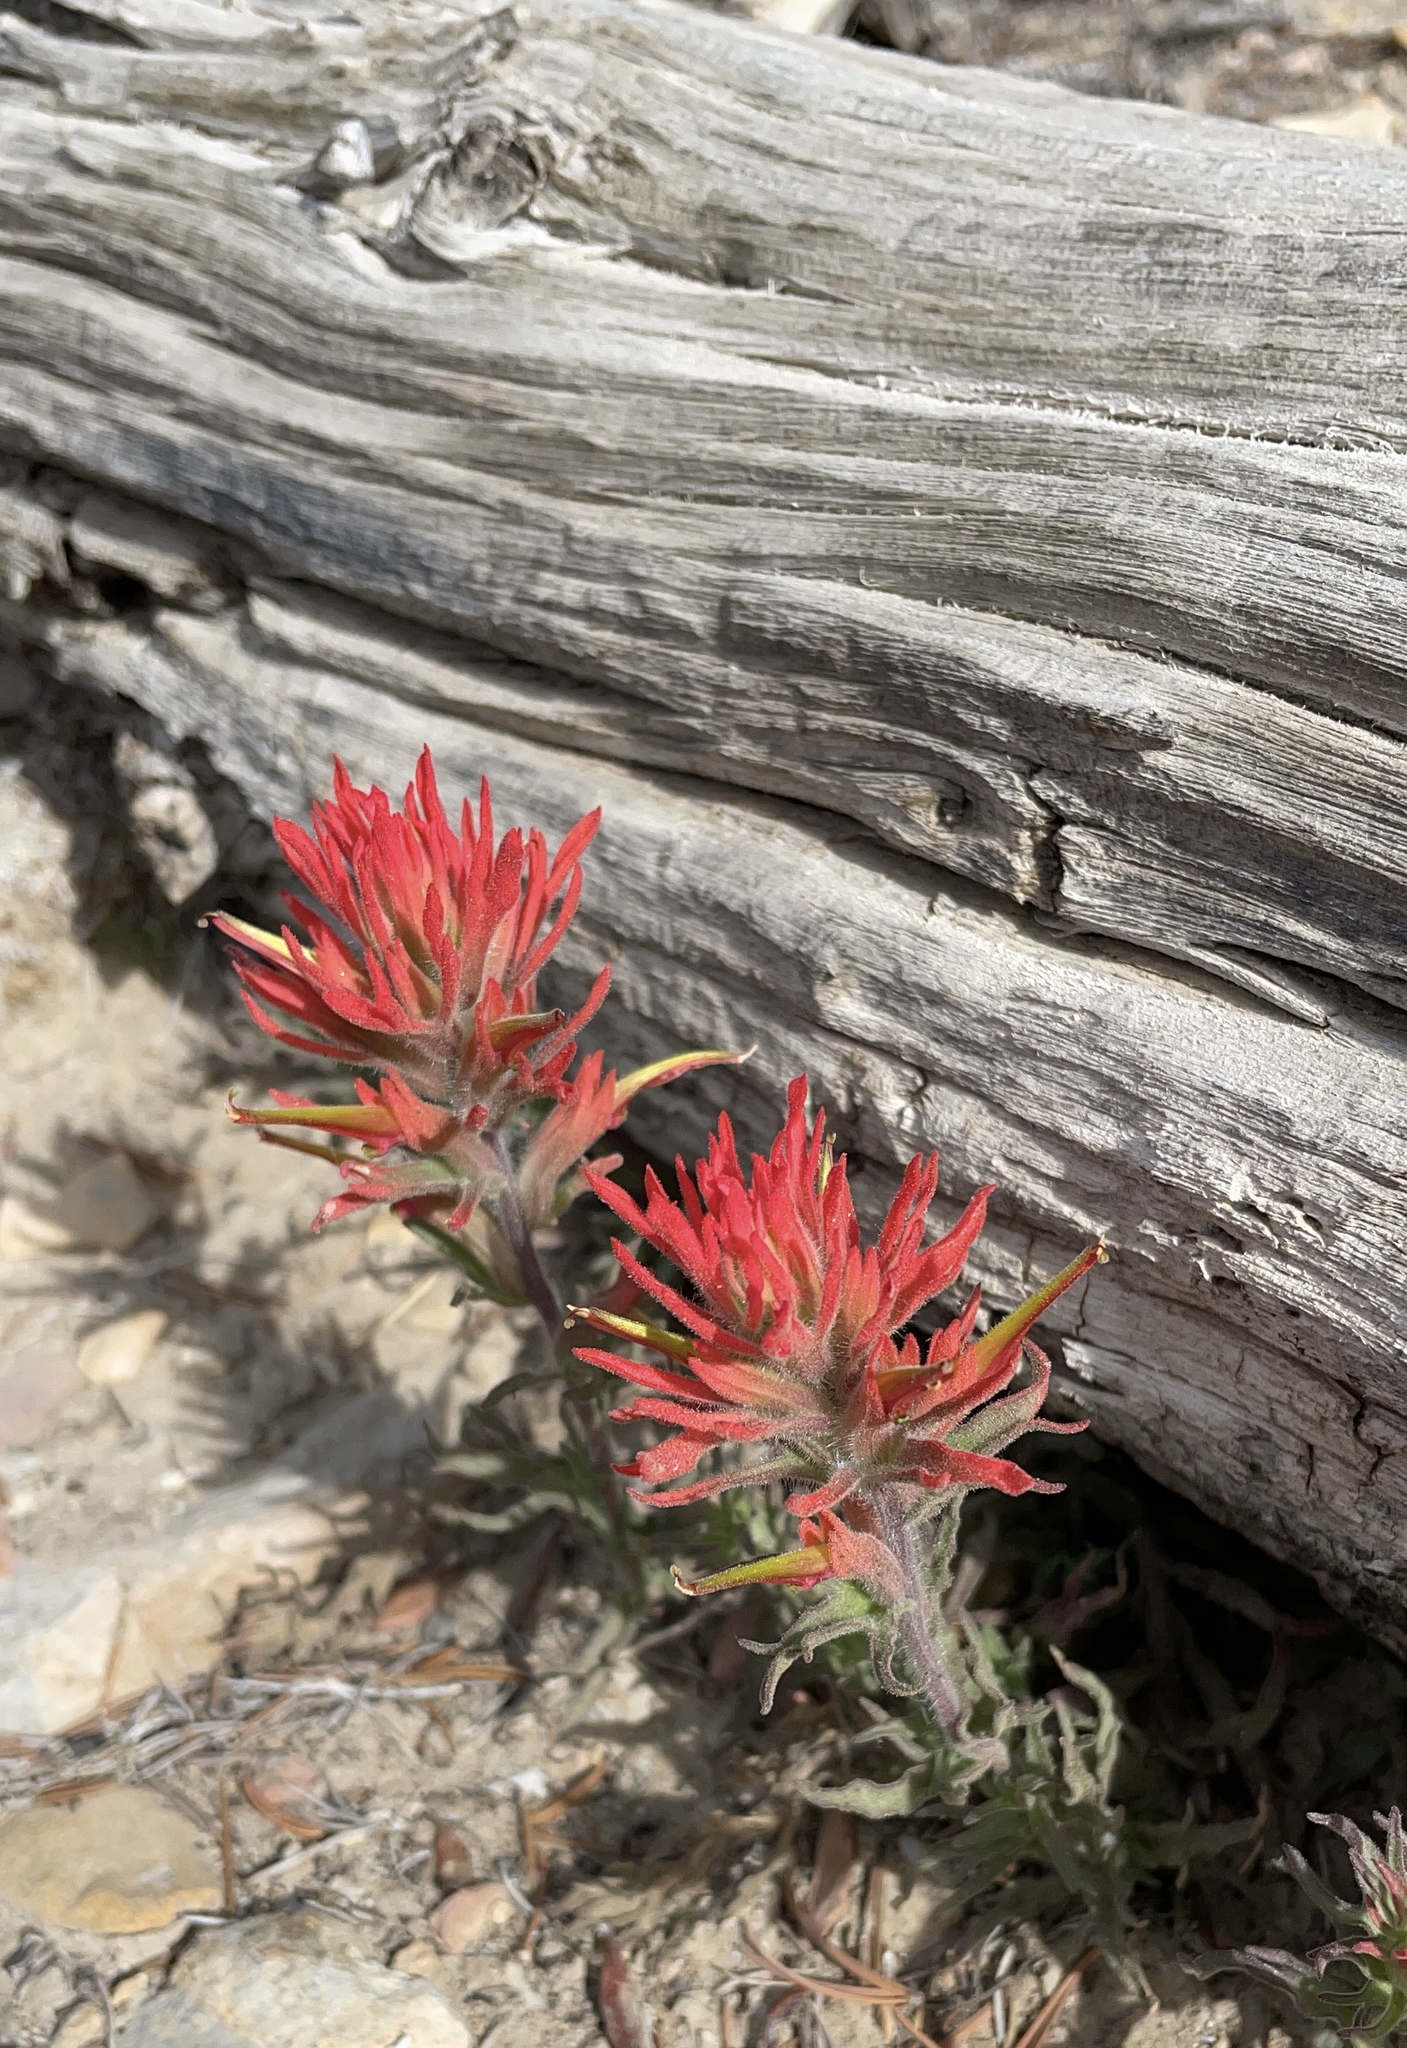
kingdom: Plantae
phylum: Tracheophyta
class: Magnoliopsida
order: Lamiales
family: Orobanchaceae
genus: Castilleja
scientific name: Castilleja applegatei
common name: Wavy-leaf paintbrush
